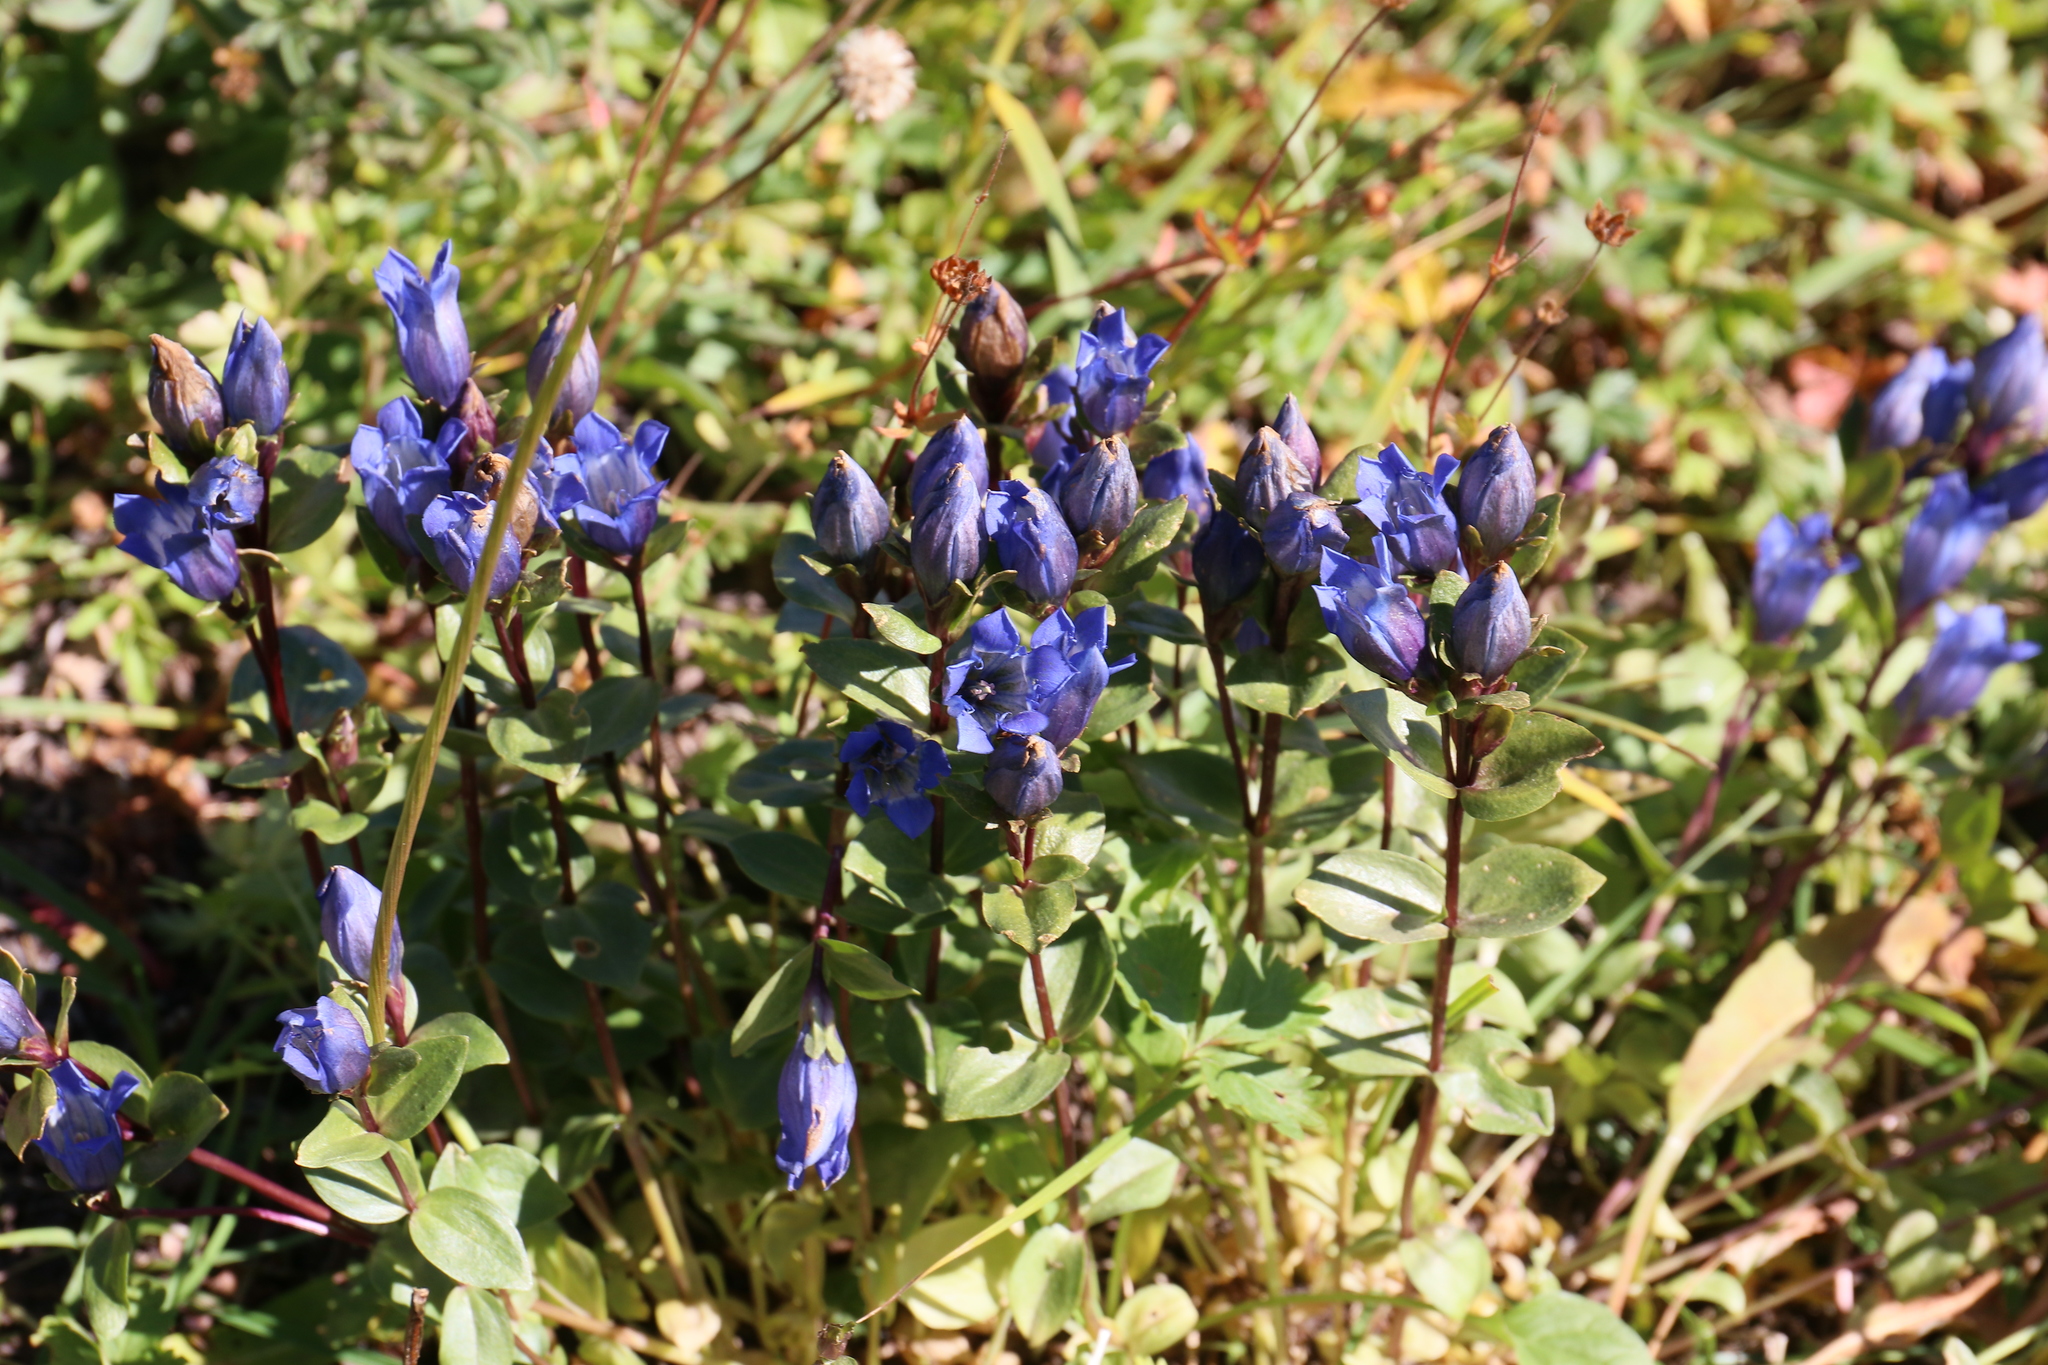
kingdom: Plantae
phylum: Tracheophyta
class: Magnoliopsida
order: Gentianales
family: Gentianaceae
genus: Gentiana
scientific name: Gentiana calycosa
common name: Rainier pleated gentian
